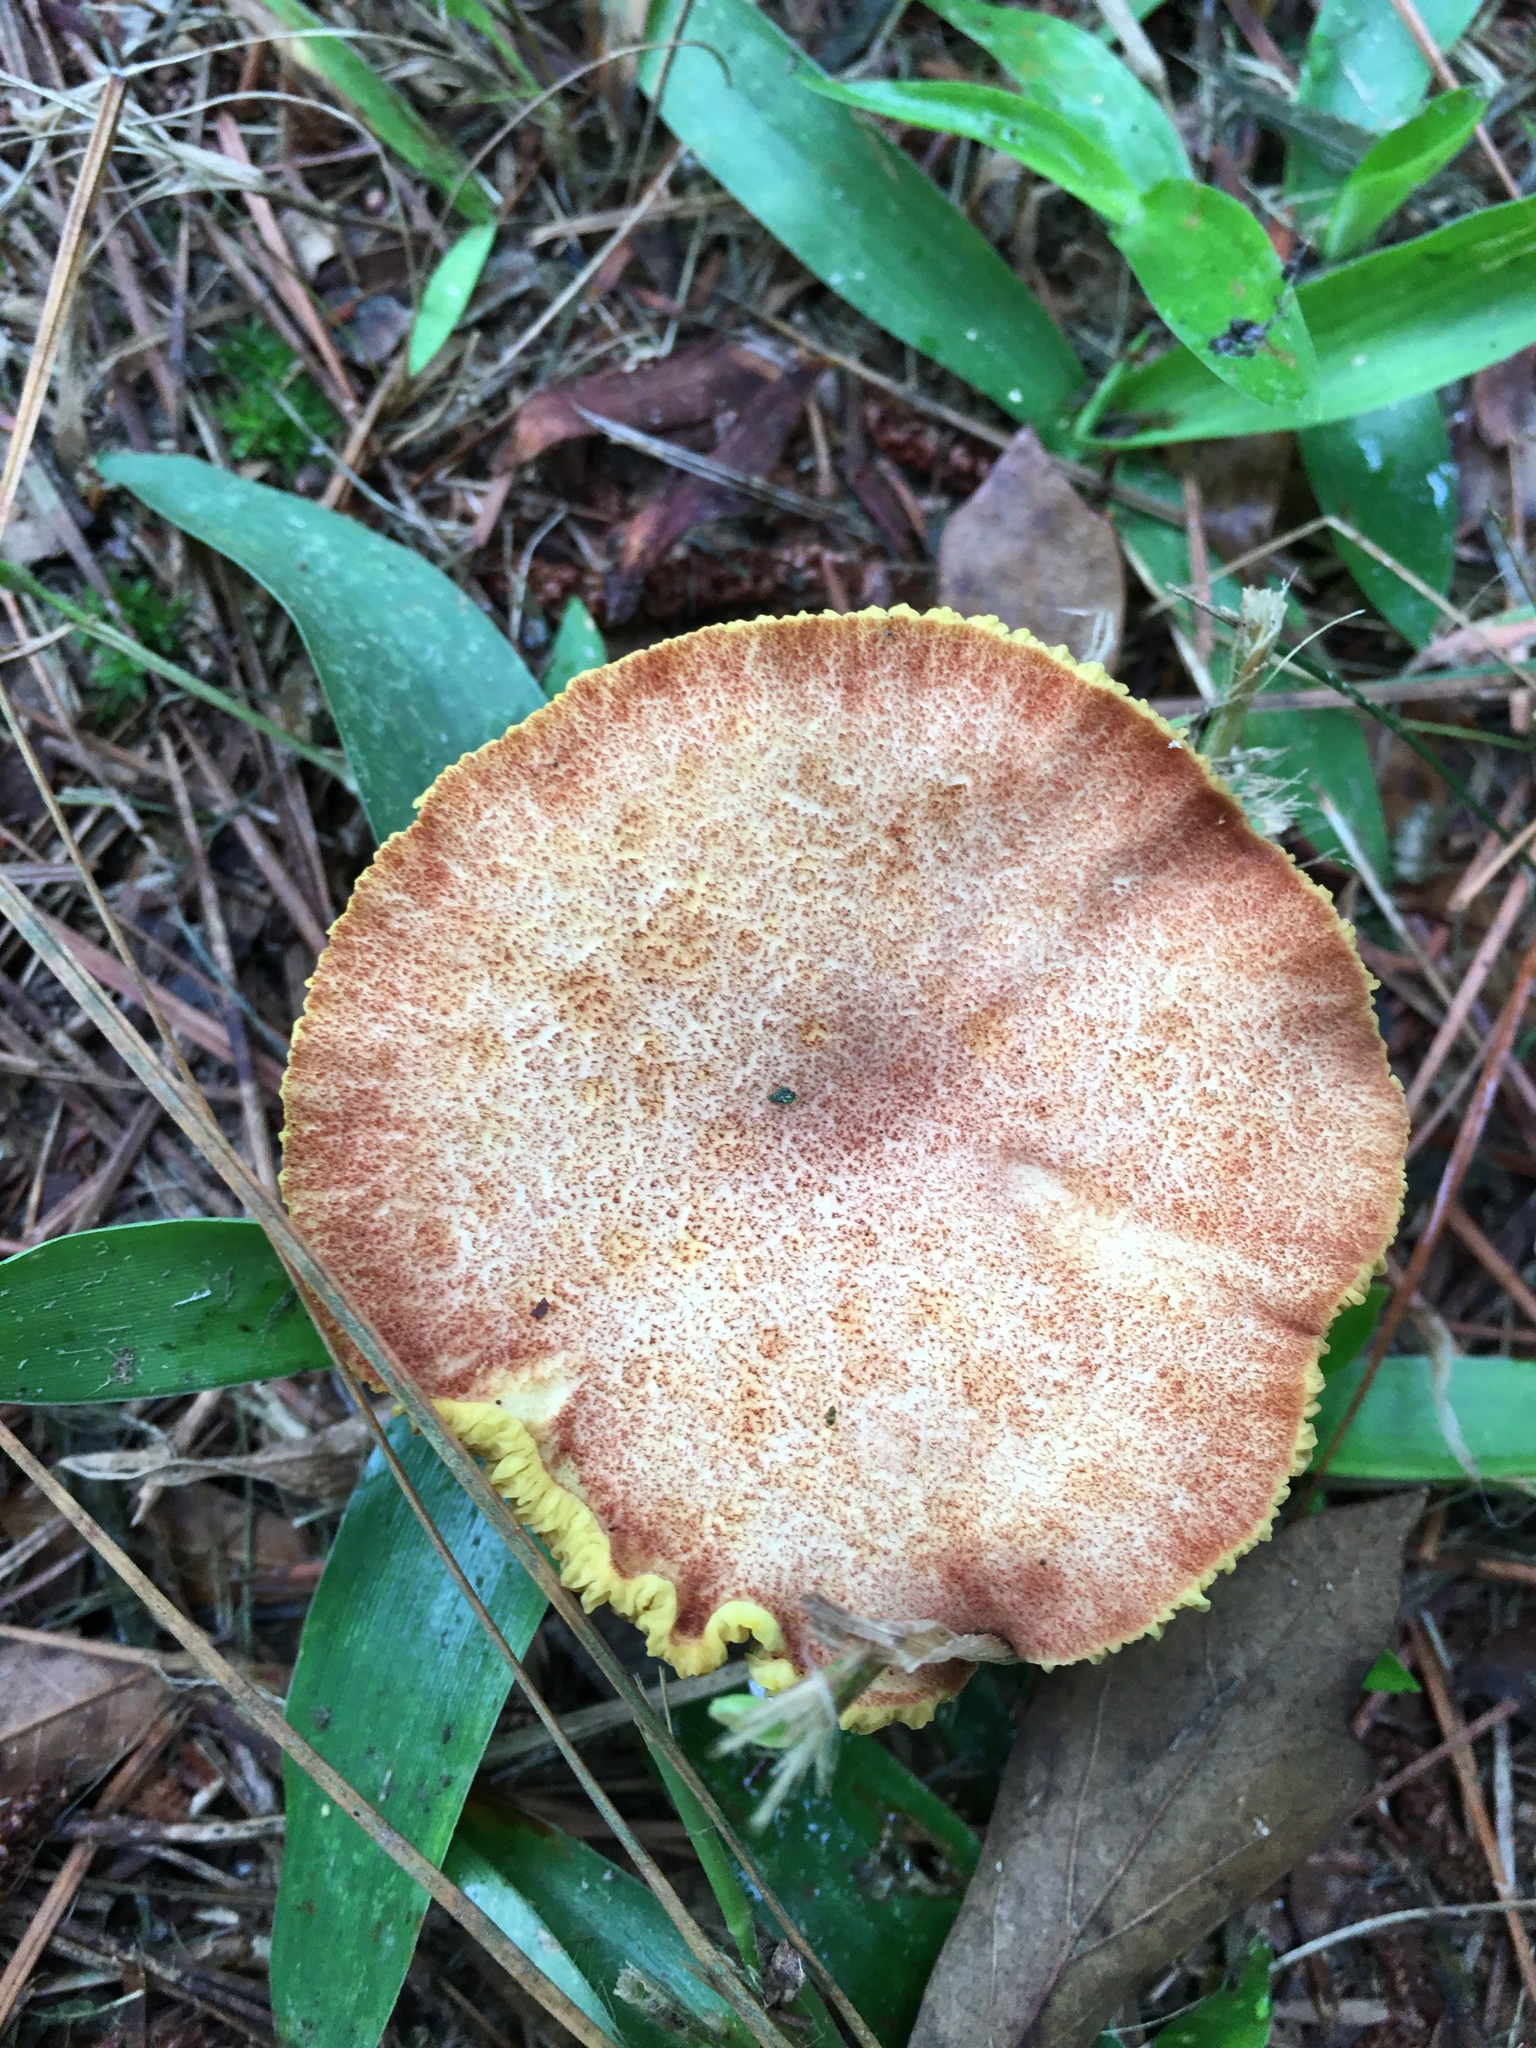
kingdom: Fungi
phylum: Basidiomycota
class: Agaricomycetes
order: Boletales
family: Boletaceae
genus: Phylloporus
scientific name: Phylloporus rhodoxanthus
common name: Golden gilled bolete
